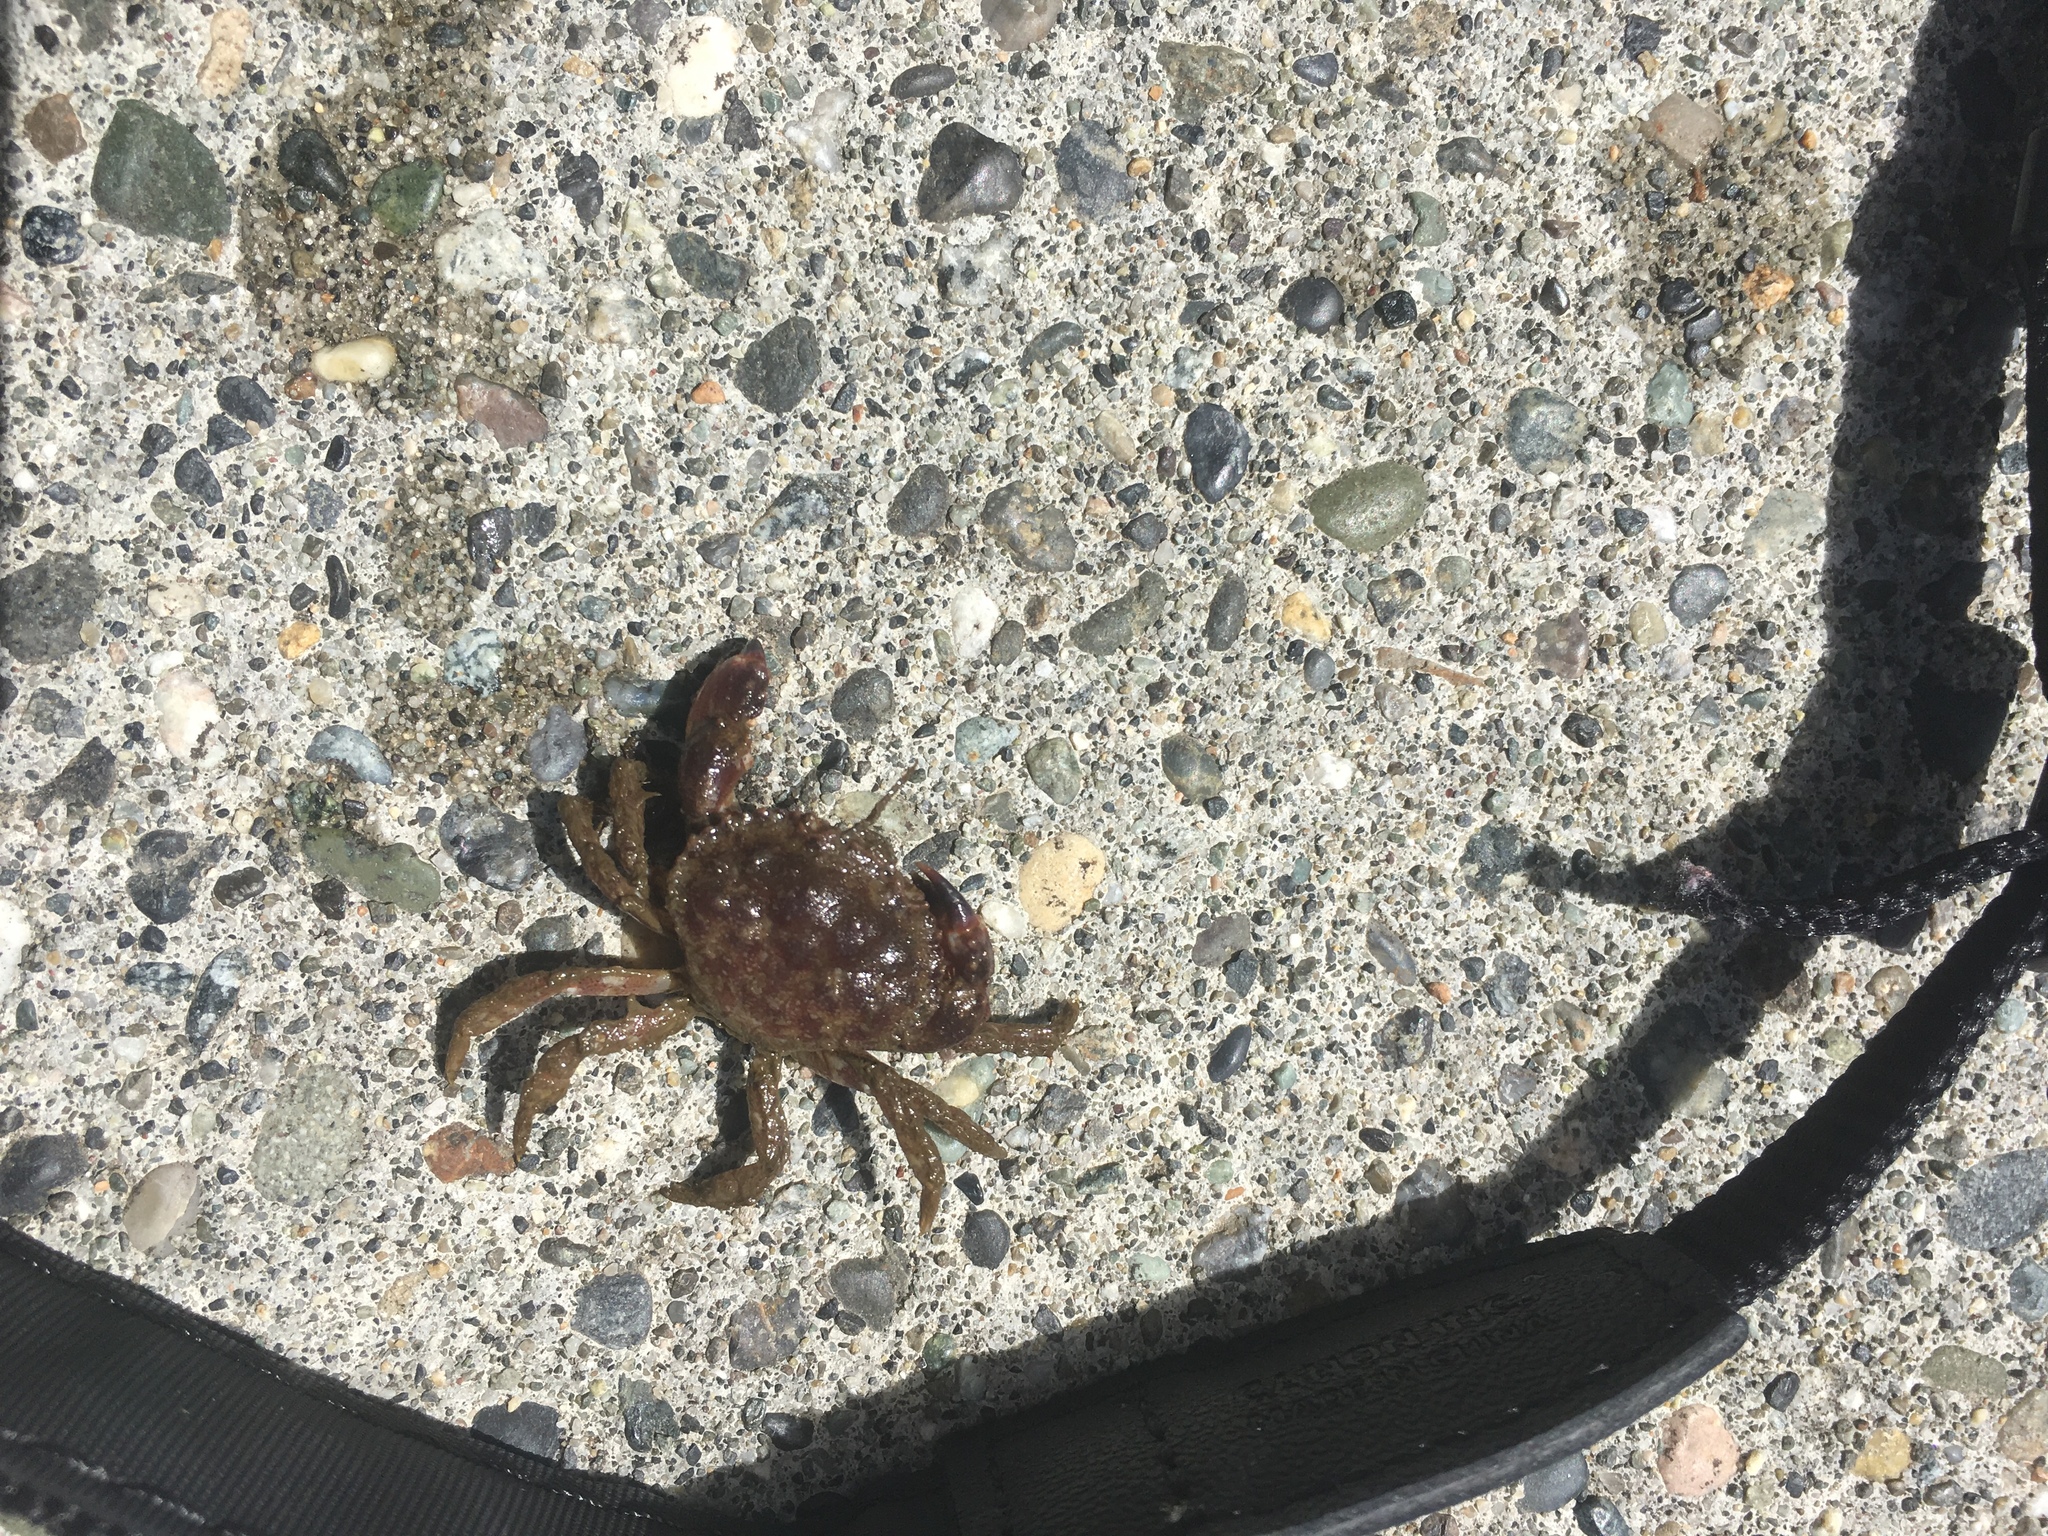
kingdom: Animalia
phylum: Arthropoda
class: Malacostraca
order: Decapoda
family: Cancridae
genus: Glebocarcinus
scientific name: Glebocarcinus oregonensis
